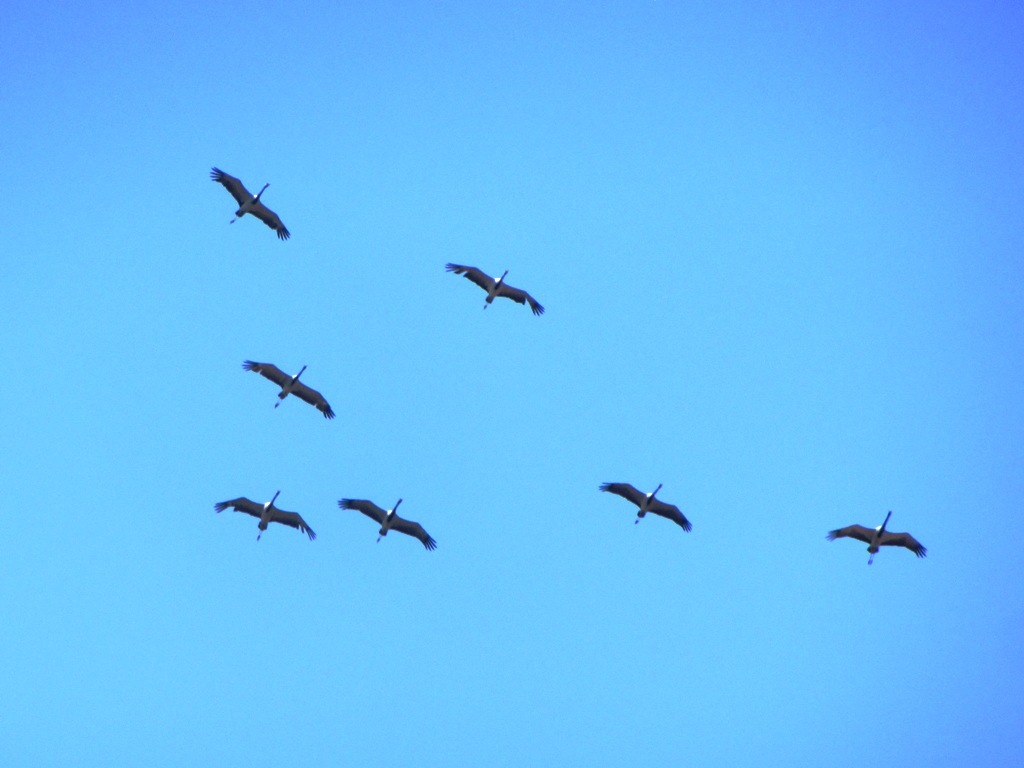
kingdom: Animalia
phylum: Chordata
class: Aves
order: Gruiformes
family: Gruidae
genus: Anthropoides
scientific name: Anthropoides virgo
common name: Demoiselle crane
